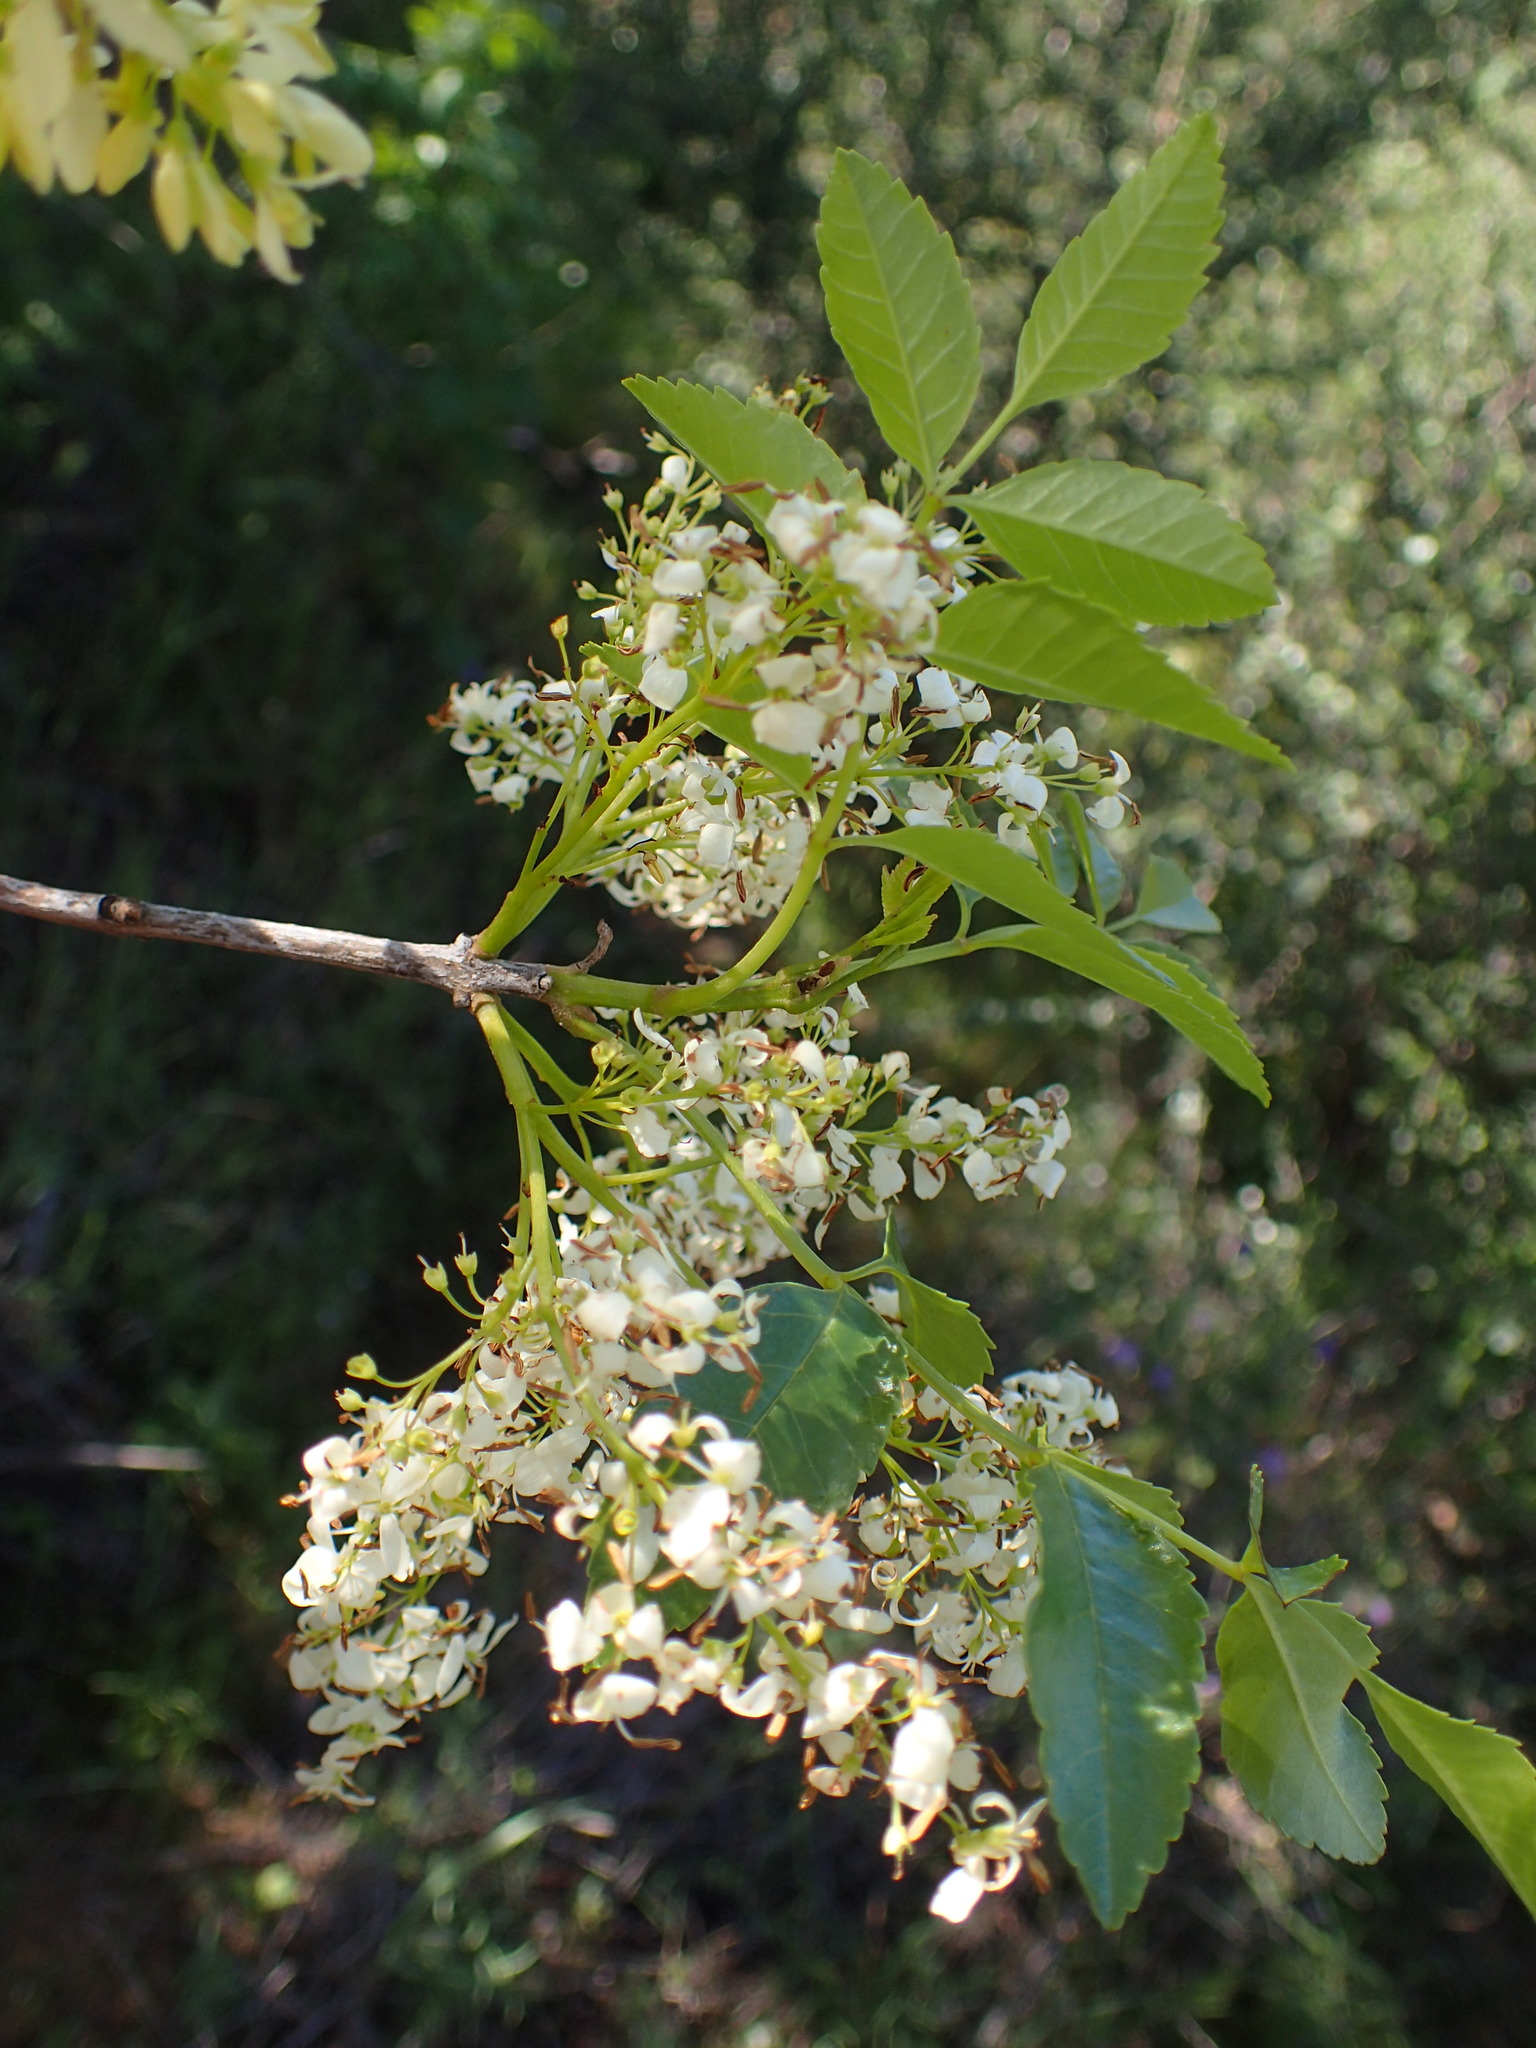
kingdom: Plantae
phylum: Tracheophyta
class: Magnoliopsida
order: Lamiales
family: Oleaceae
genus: Fraxinus
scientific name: Fraxinus dipetala
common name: California ash
